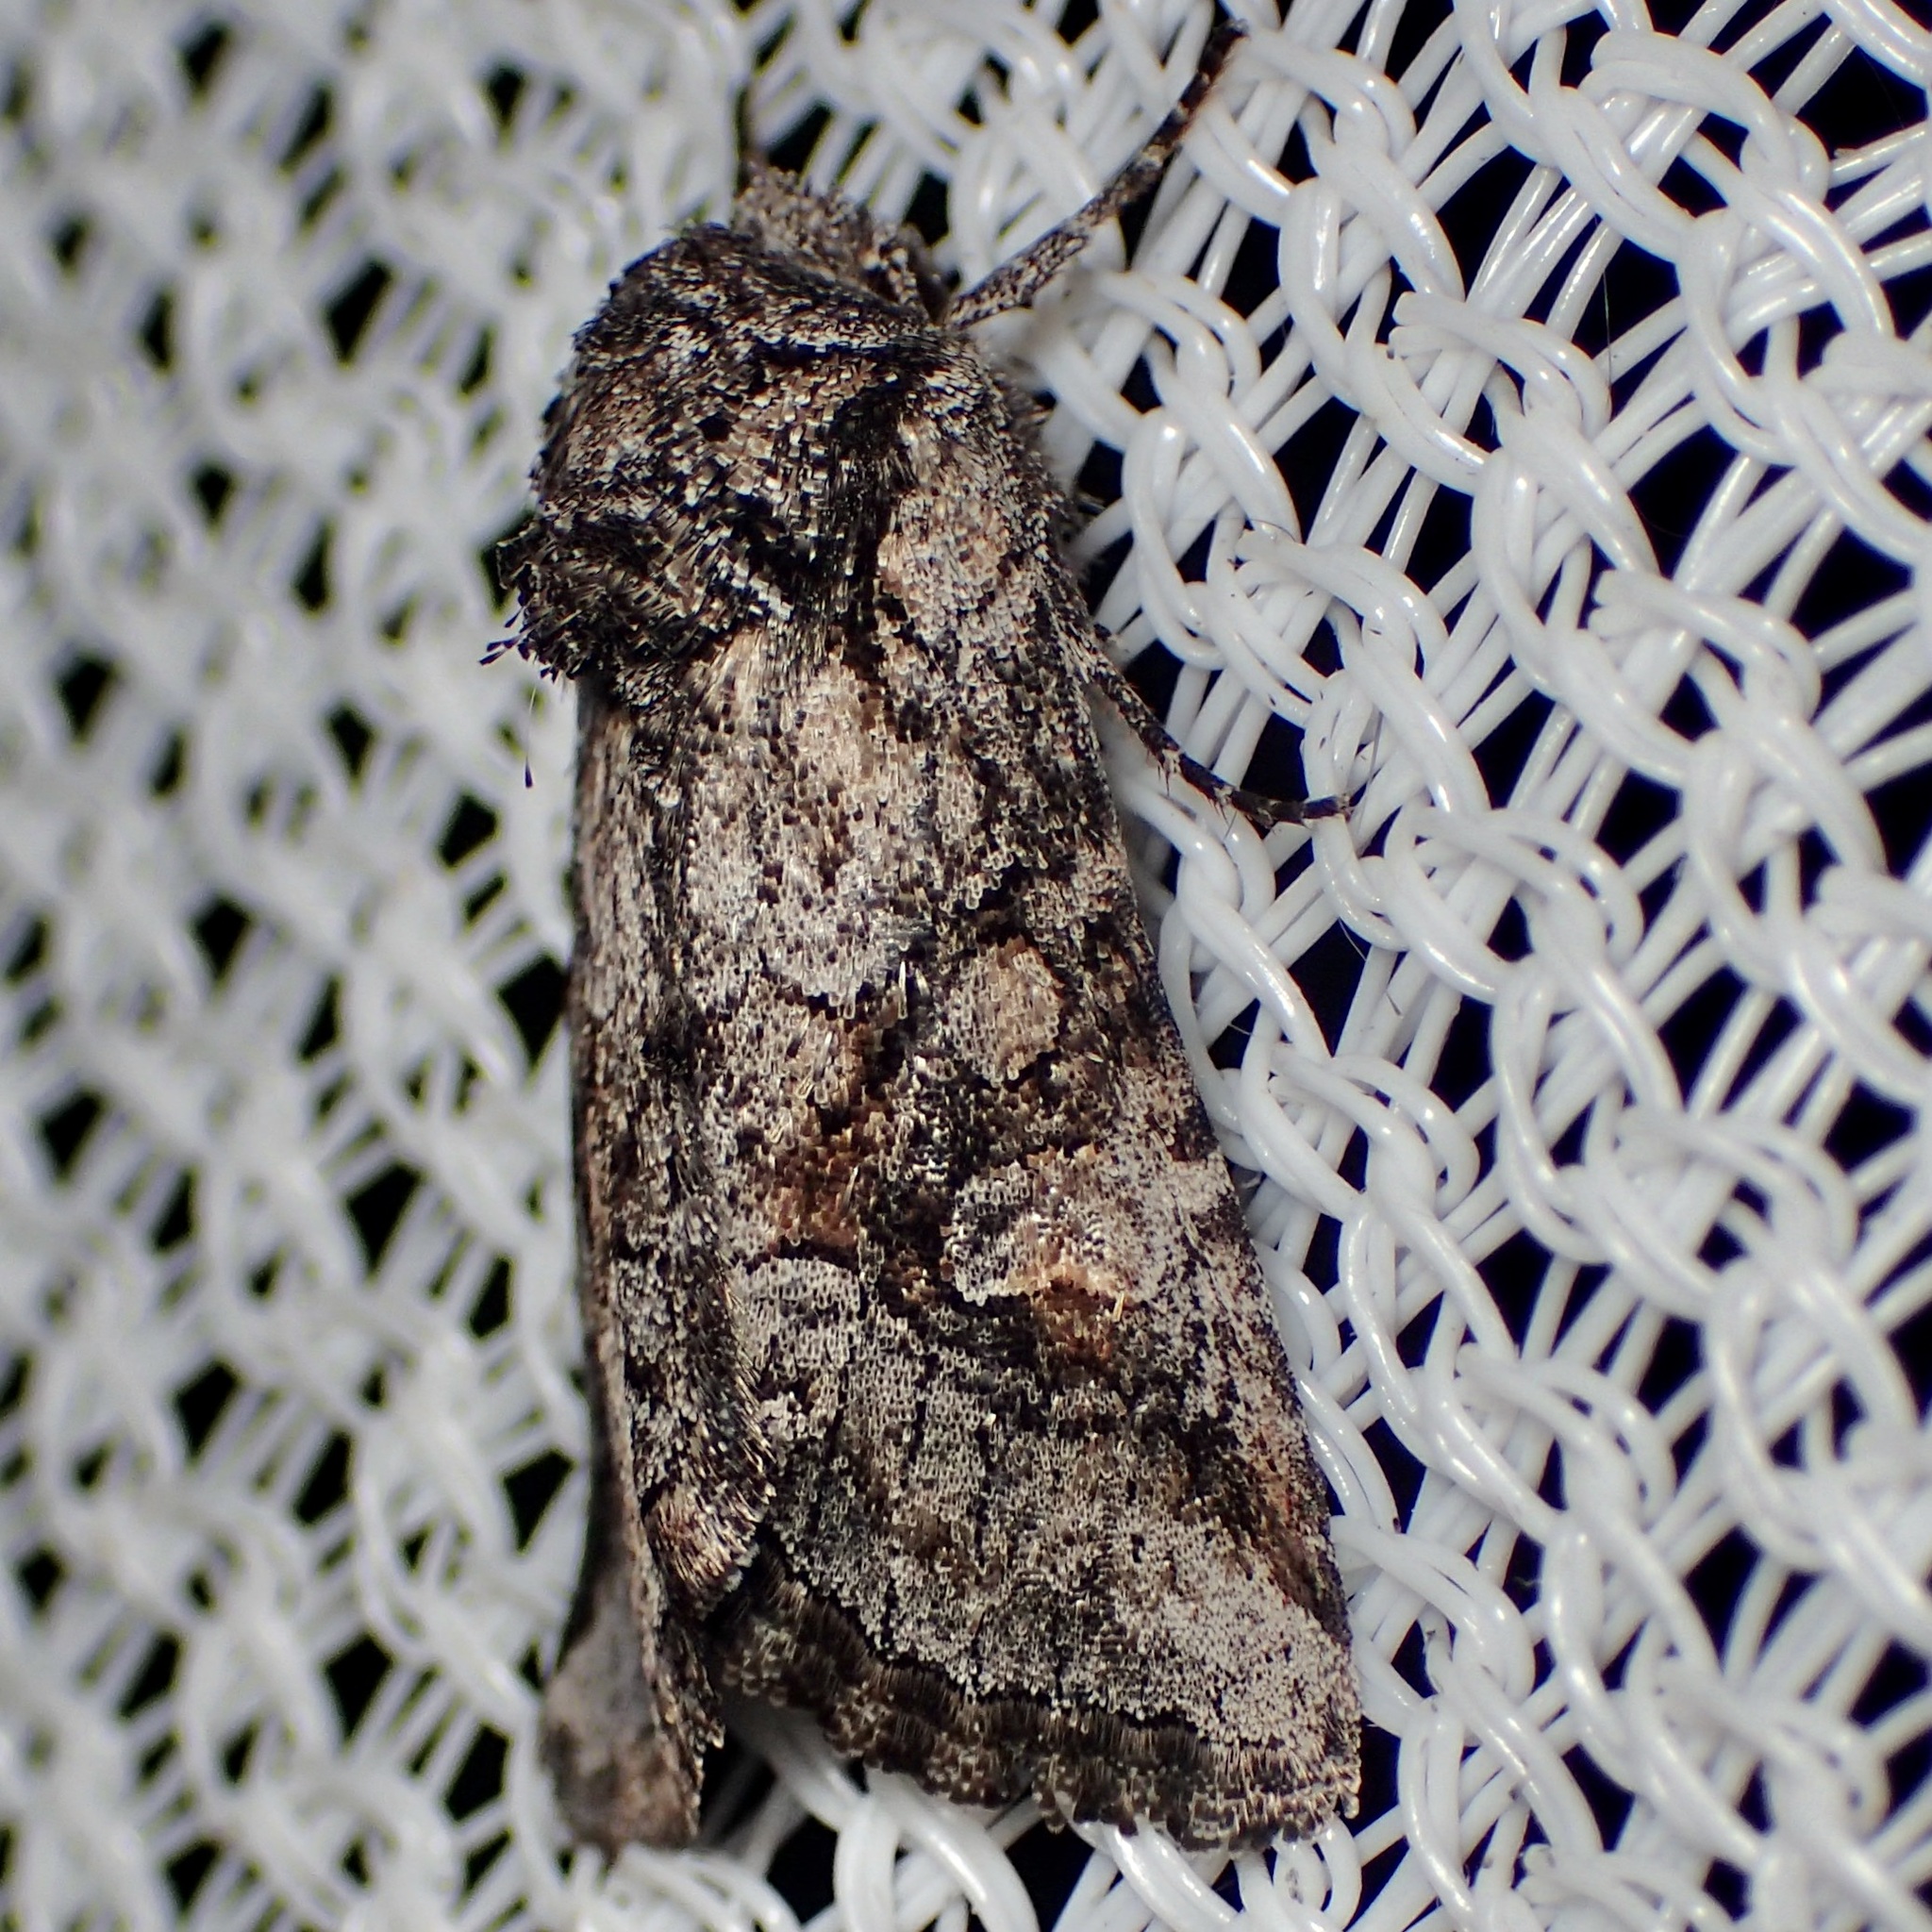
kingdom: Animalia
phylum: Arthropoda
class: Insecta
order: Lepidoptera
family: Noctuidae
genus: Lacinipolia
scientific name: Lacinipolia rodora
